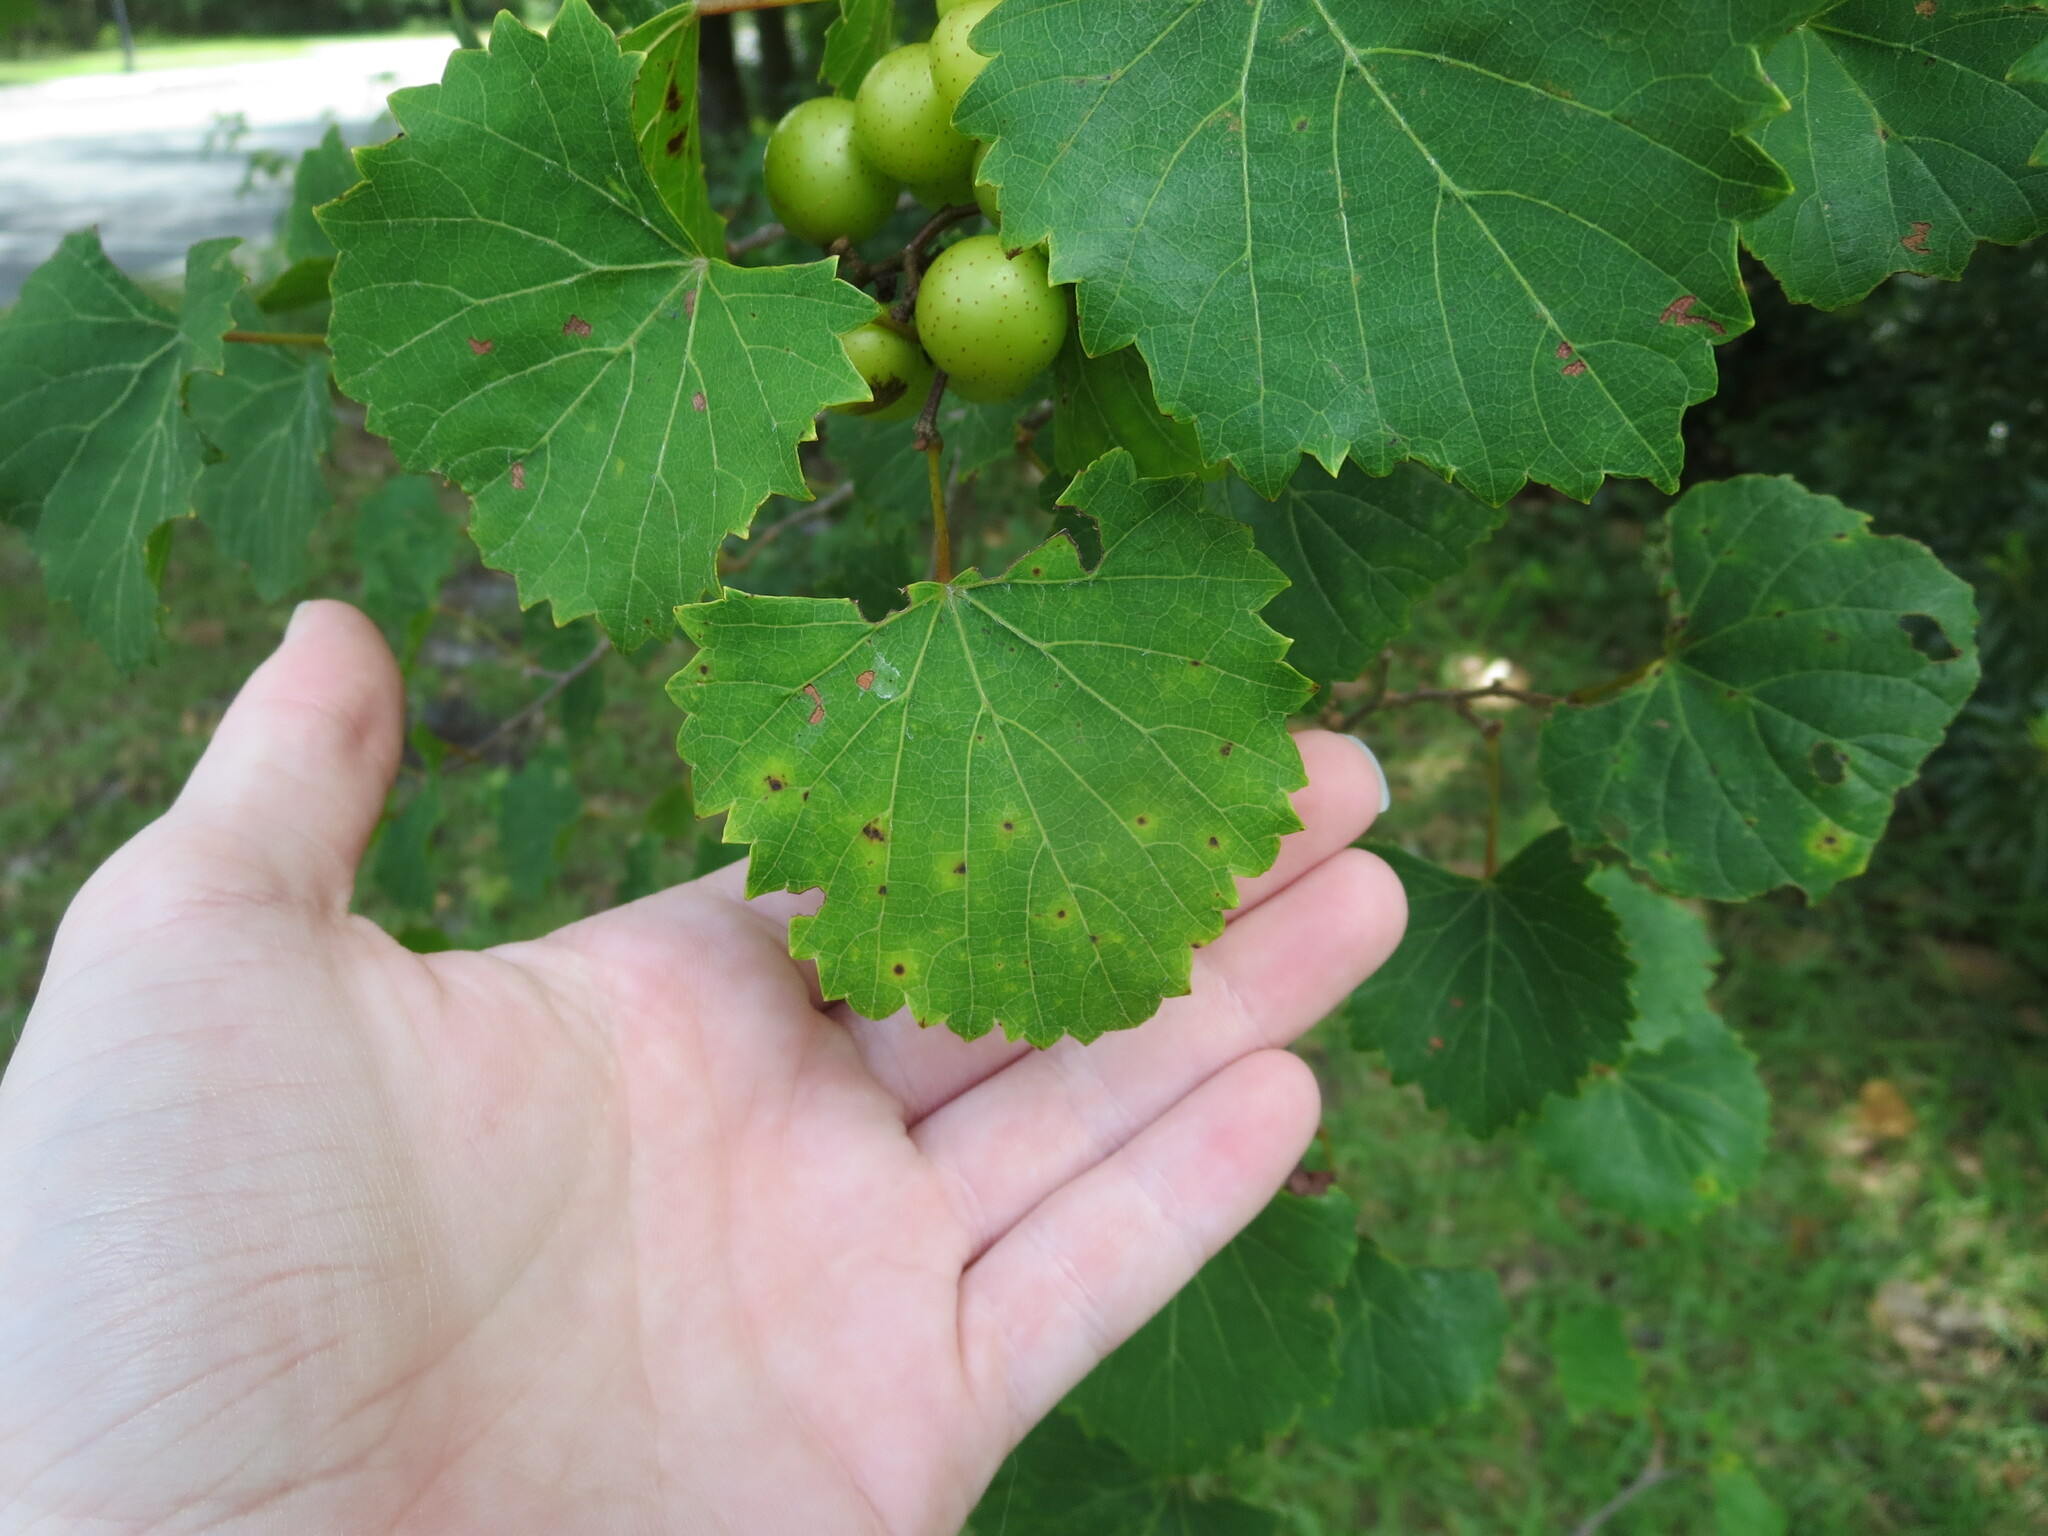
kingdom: Plantae
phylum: Tracheophyta
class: Magnoliopsida
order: Vitales
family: Vitaceae
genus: Vitis
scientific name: Vitis rotundifolia
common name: Muscadine grape
